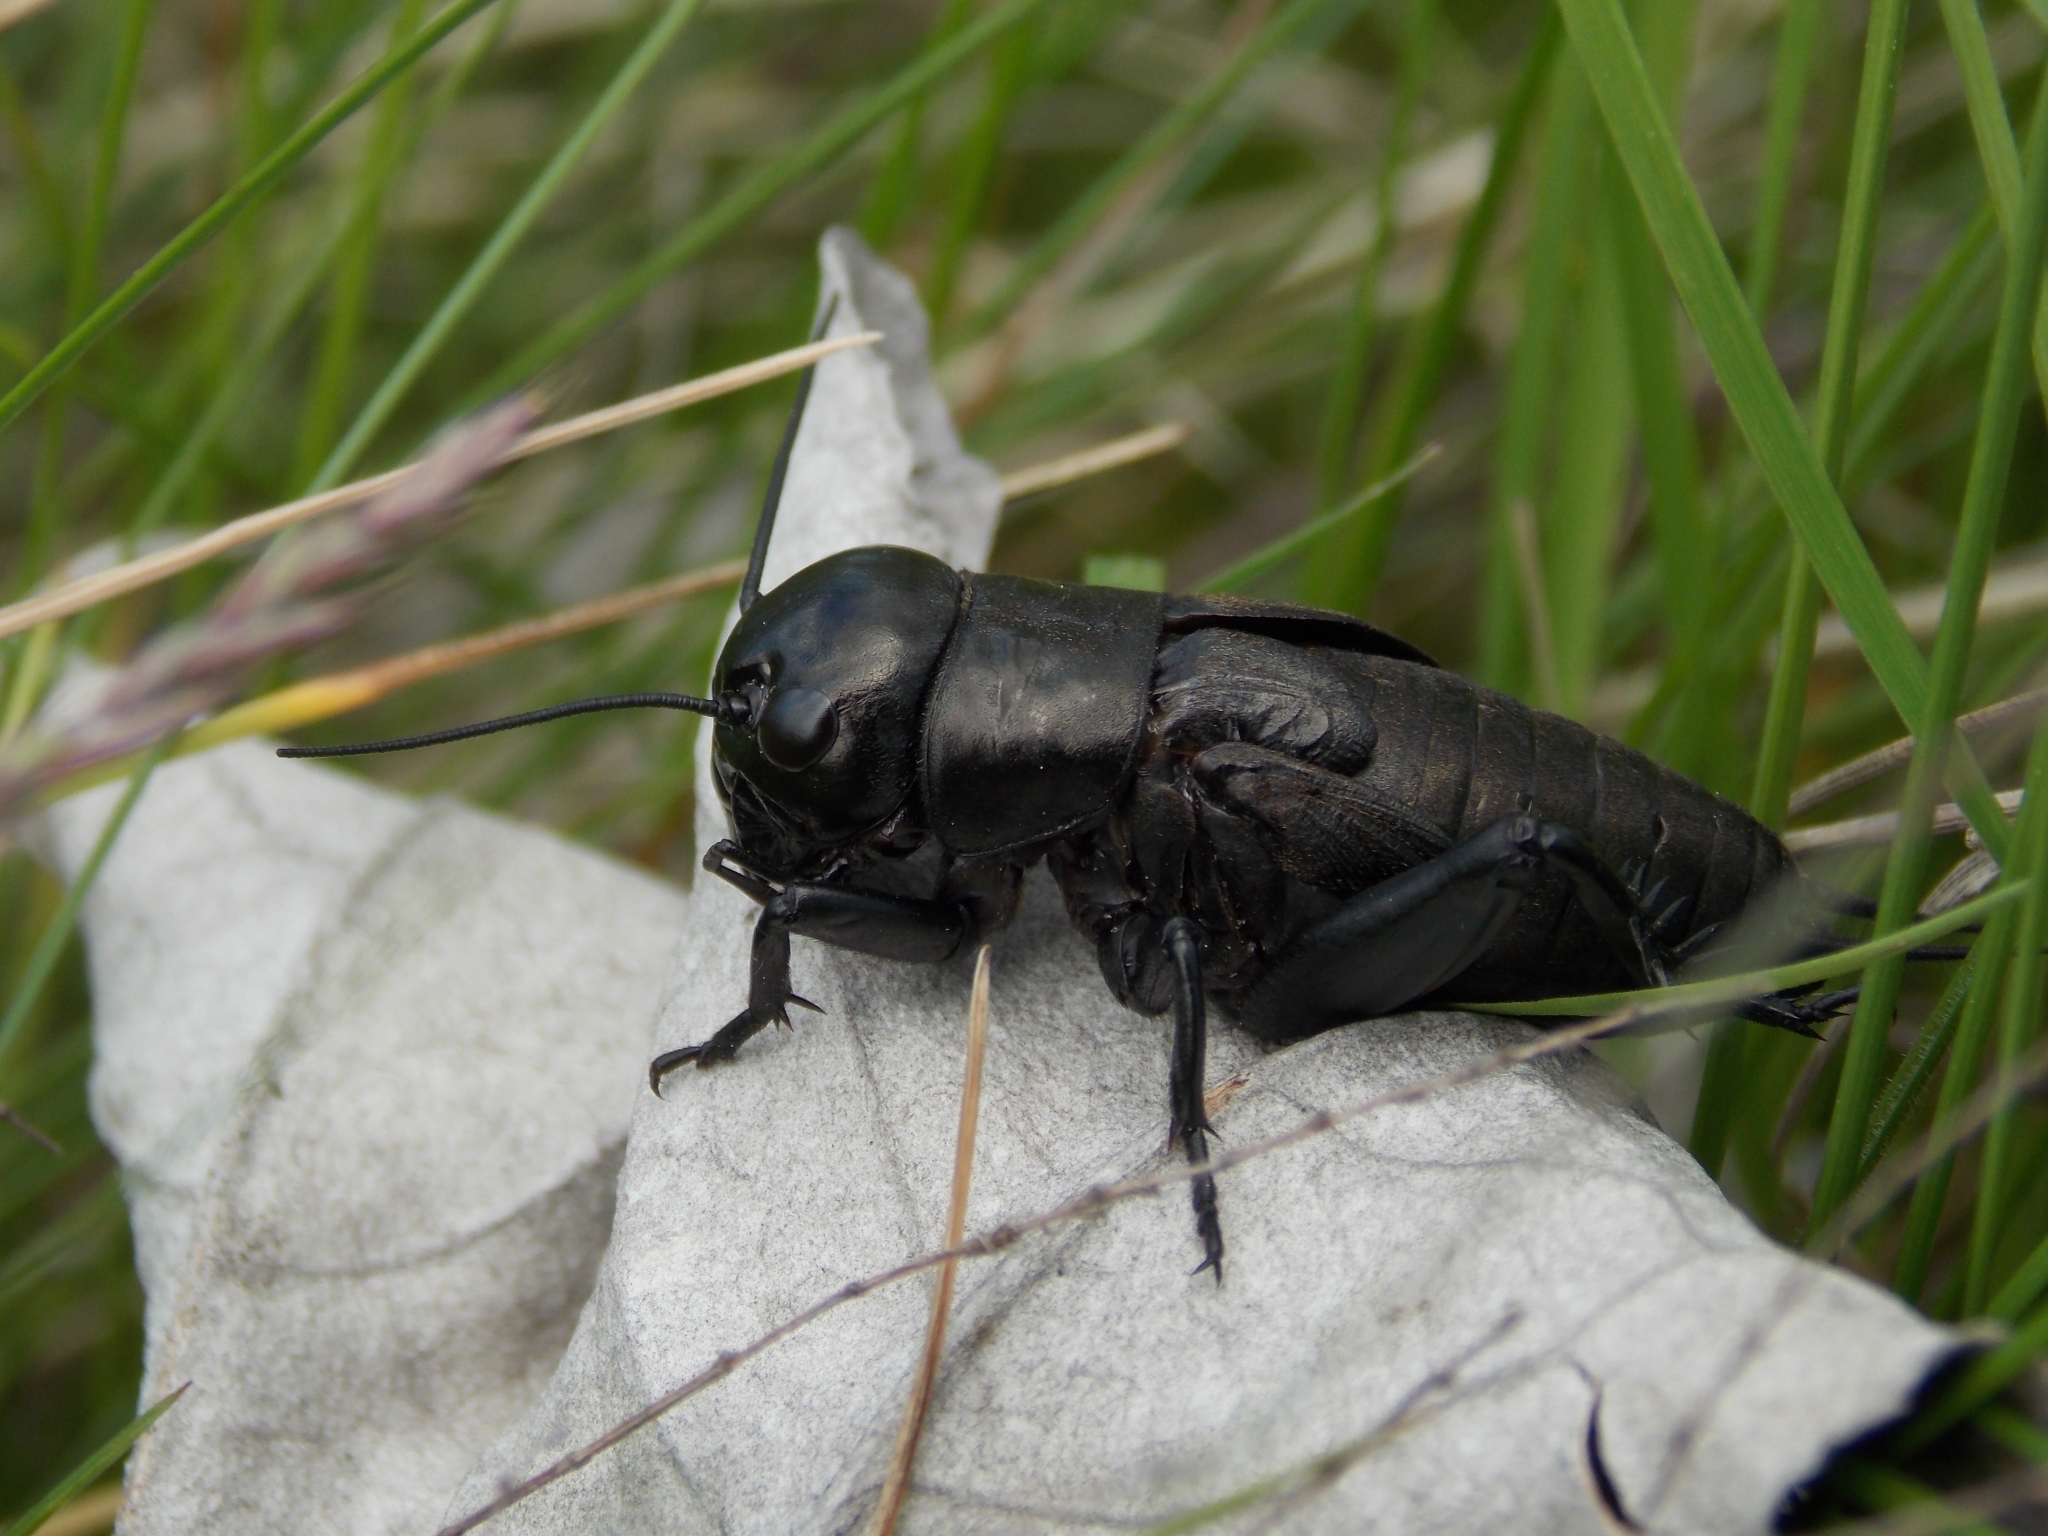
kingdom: Animalia
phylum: Arthropoda
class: Insecta
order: Orthoptera
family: Gryllidae
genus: Gryllus
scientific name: Gryllus campestris
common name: Field cricket
